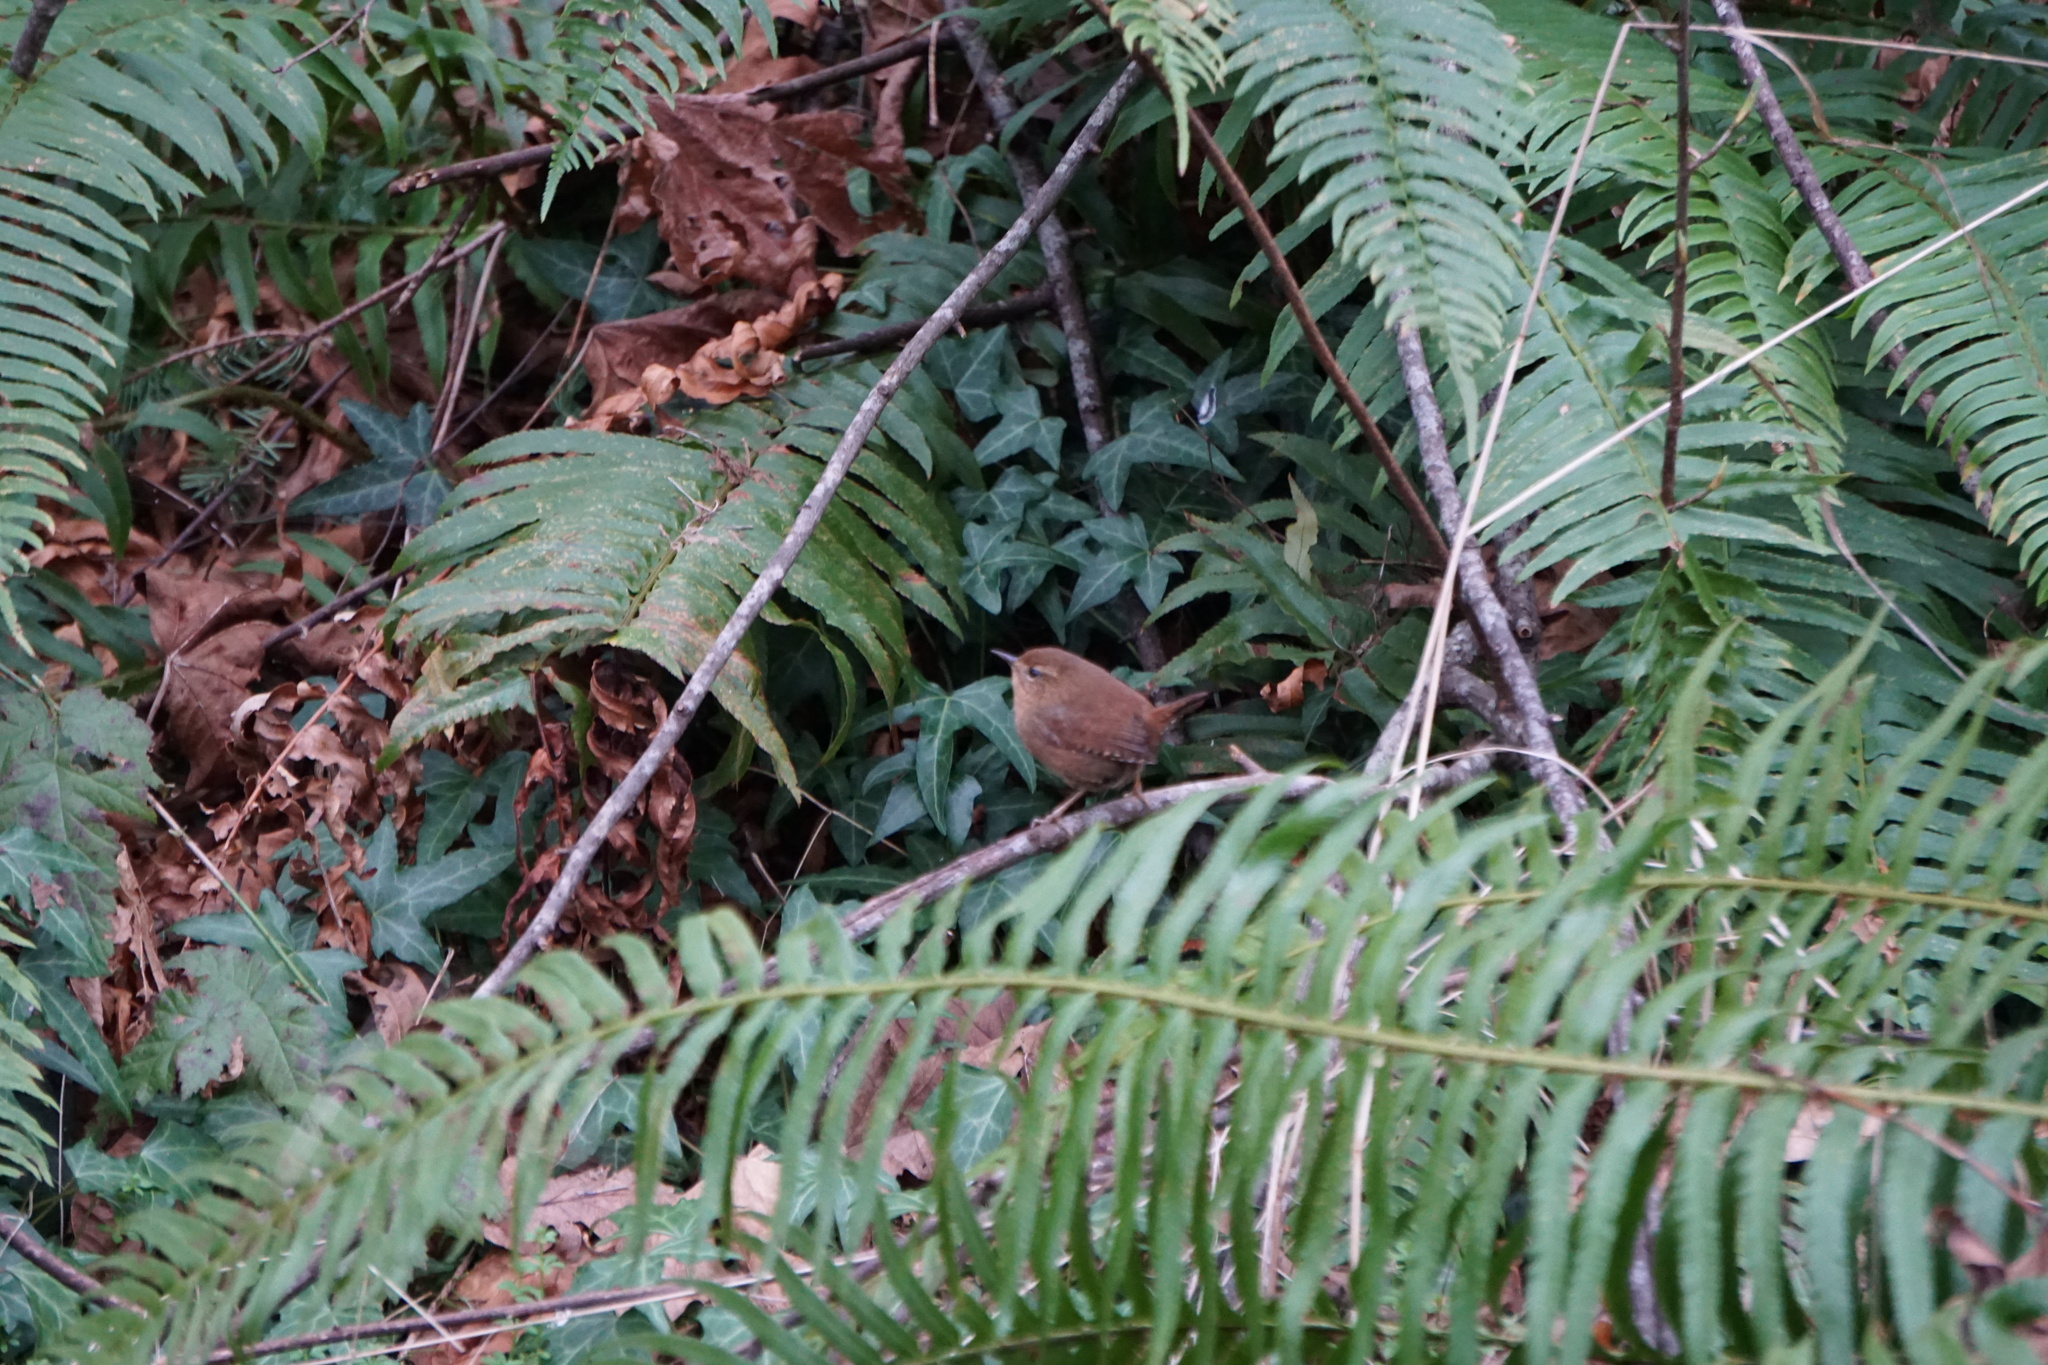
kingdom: Animalia
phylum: Chordata
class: Aves
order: Passeriformes
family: Troglodytidae
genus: Troglodytes
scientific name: Troglodytes pacificus
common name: Pacific wren
